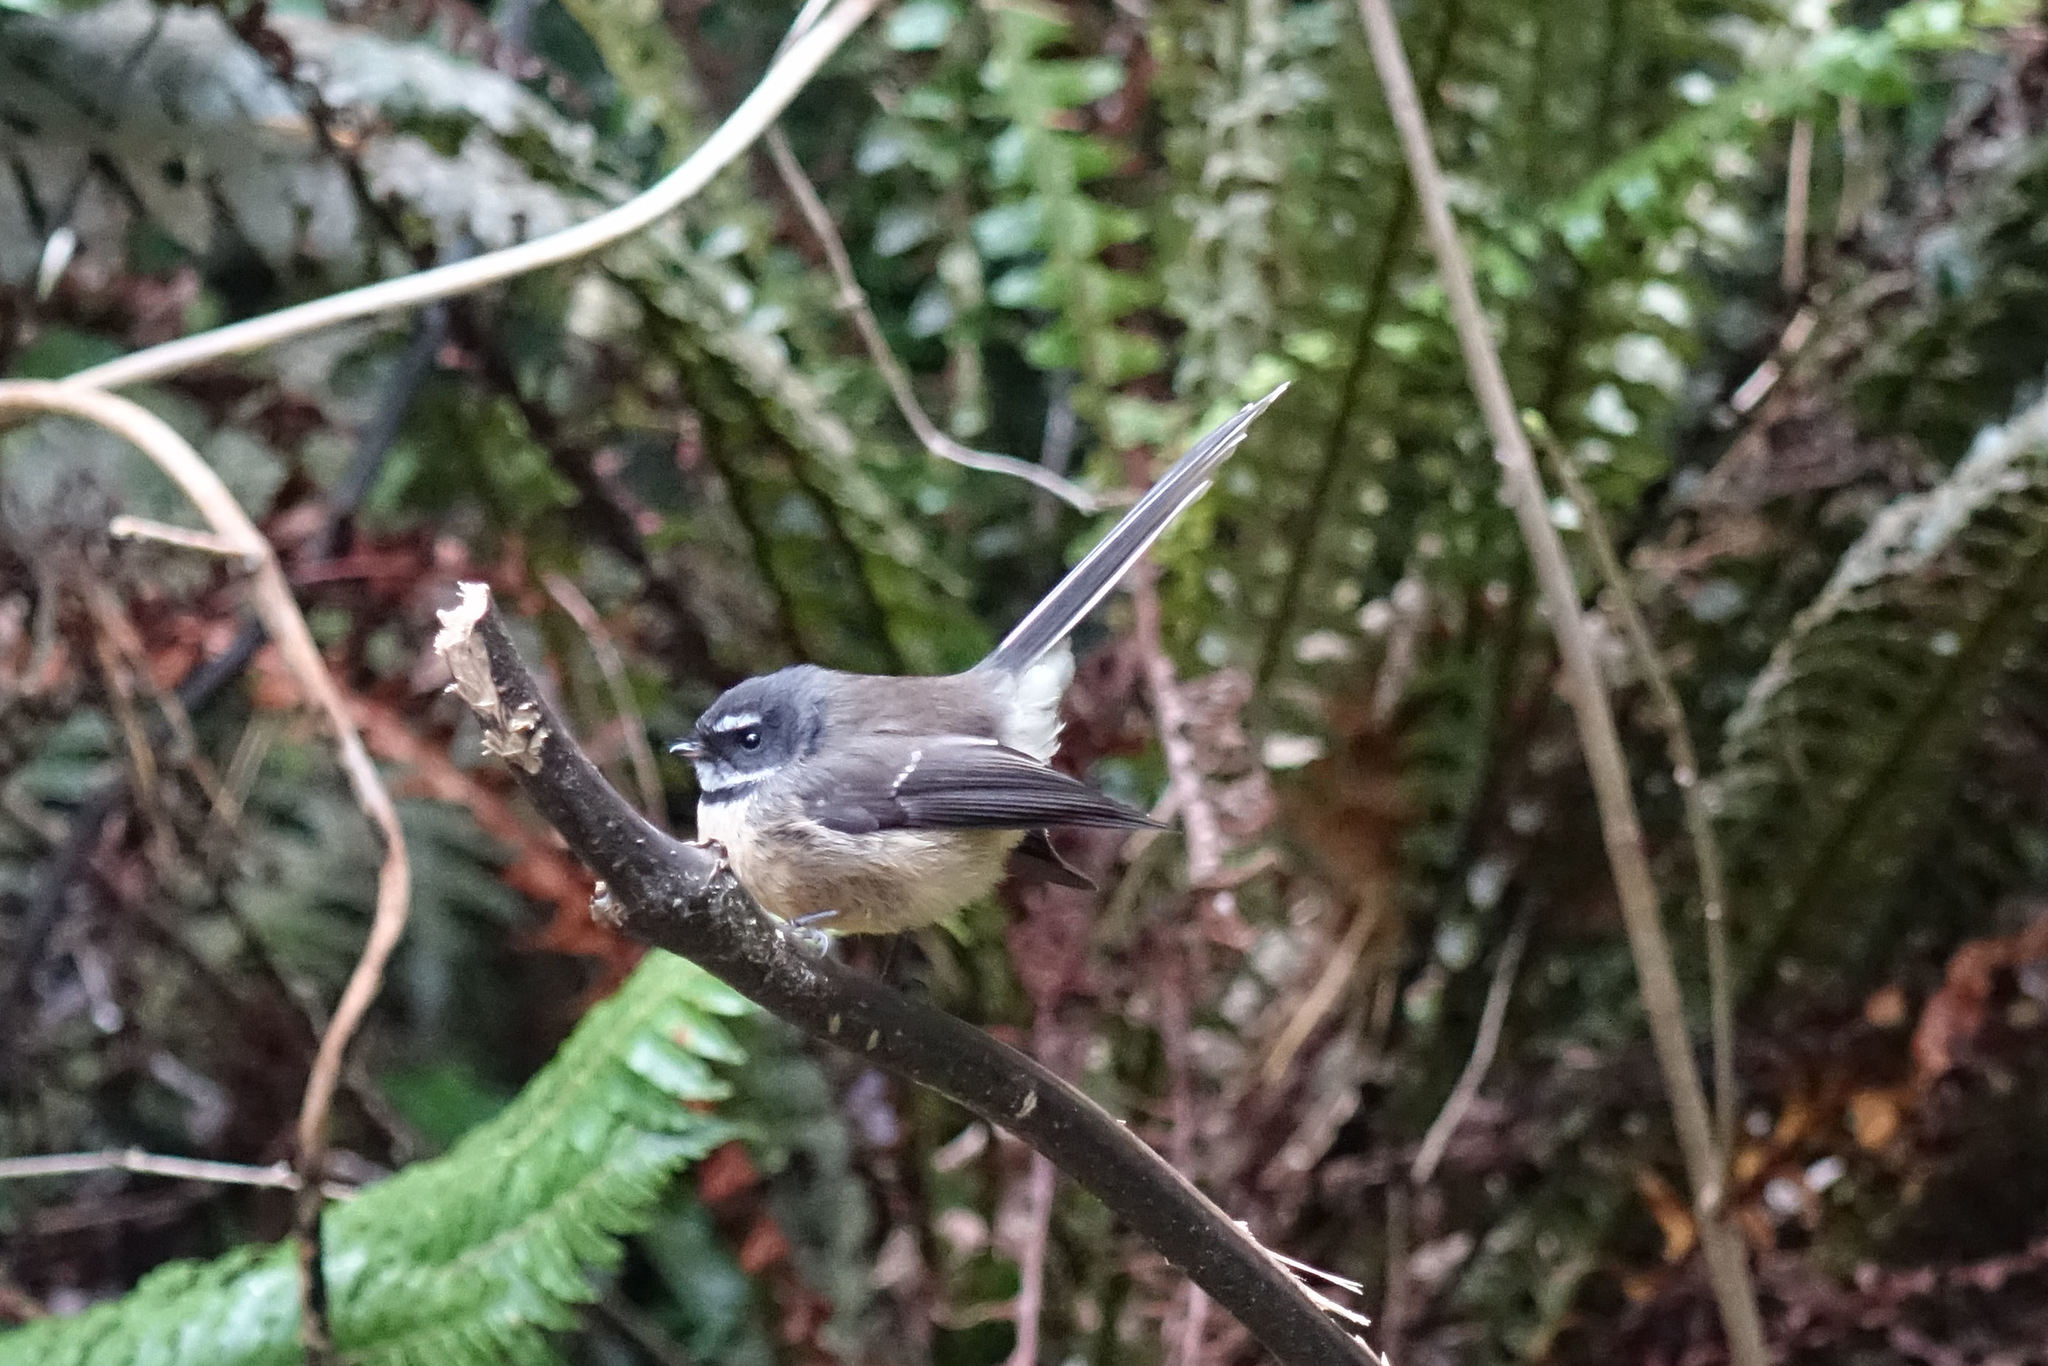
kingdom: Animalia
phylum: Chordata
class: Aves
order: Passeriformes
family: Rhipiduridae
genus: Rhipidura
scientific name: Rhipidura fuliginosa
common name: New zealand fantail
